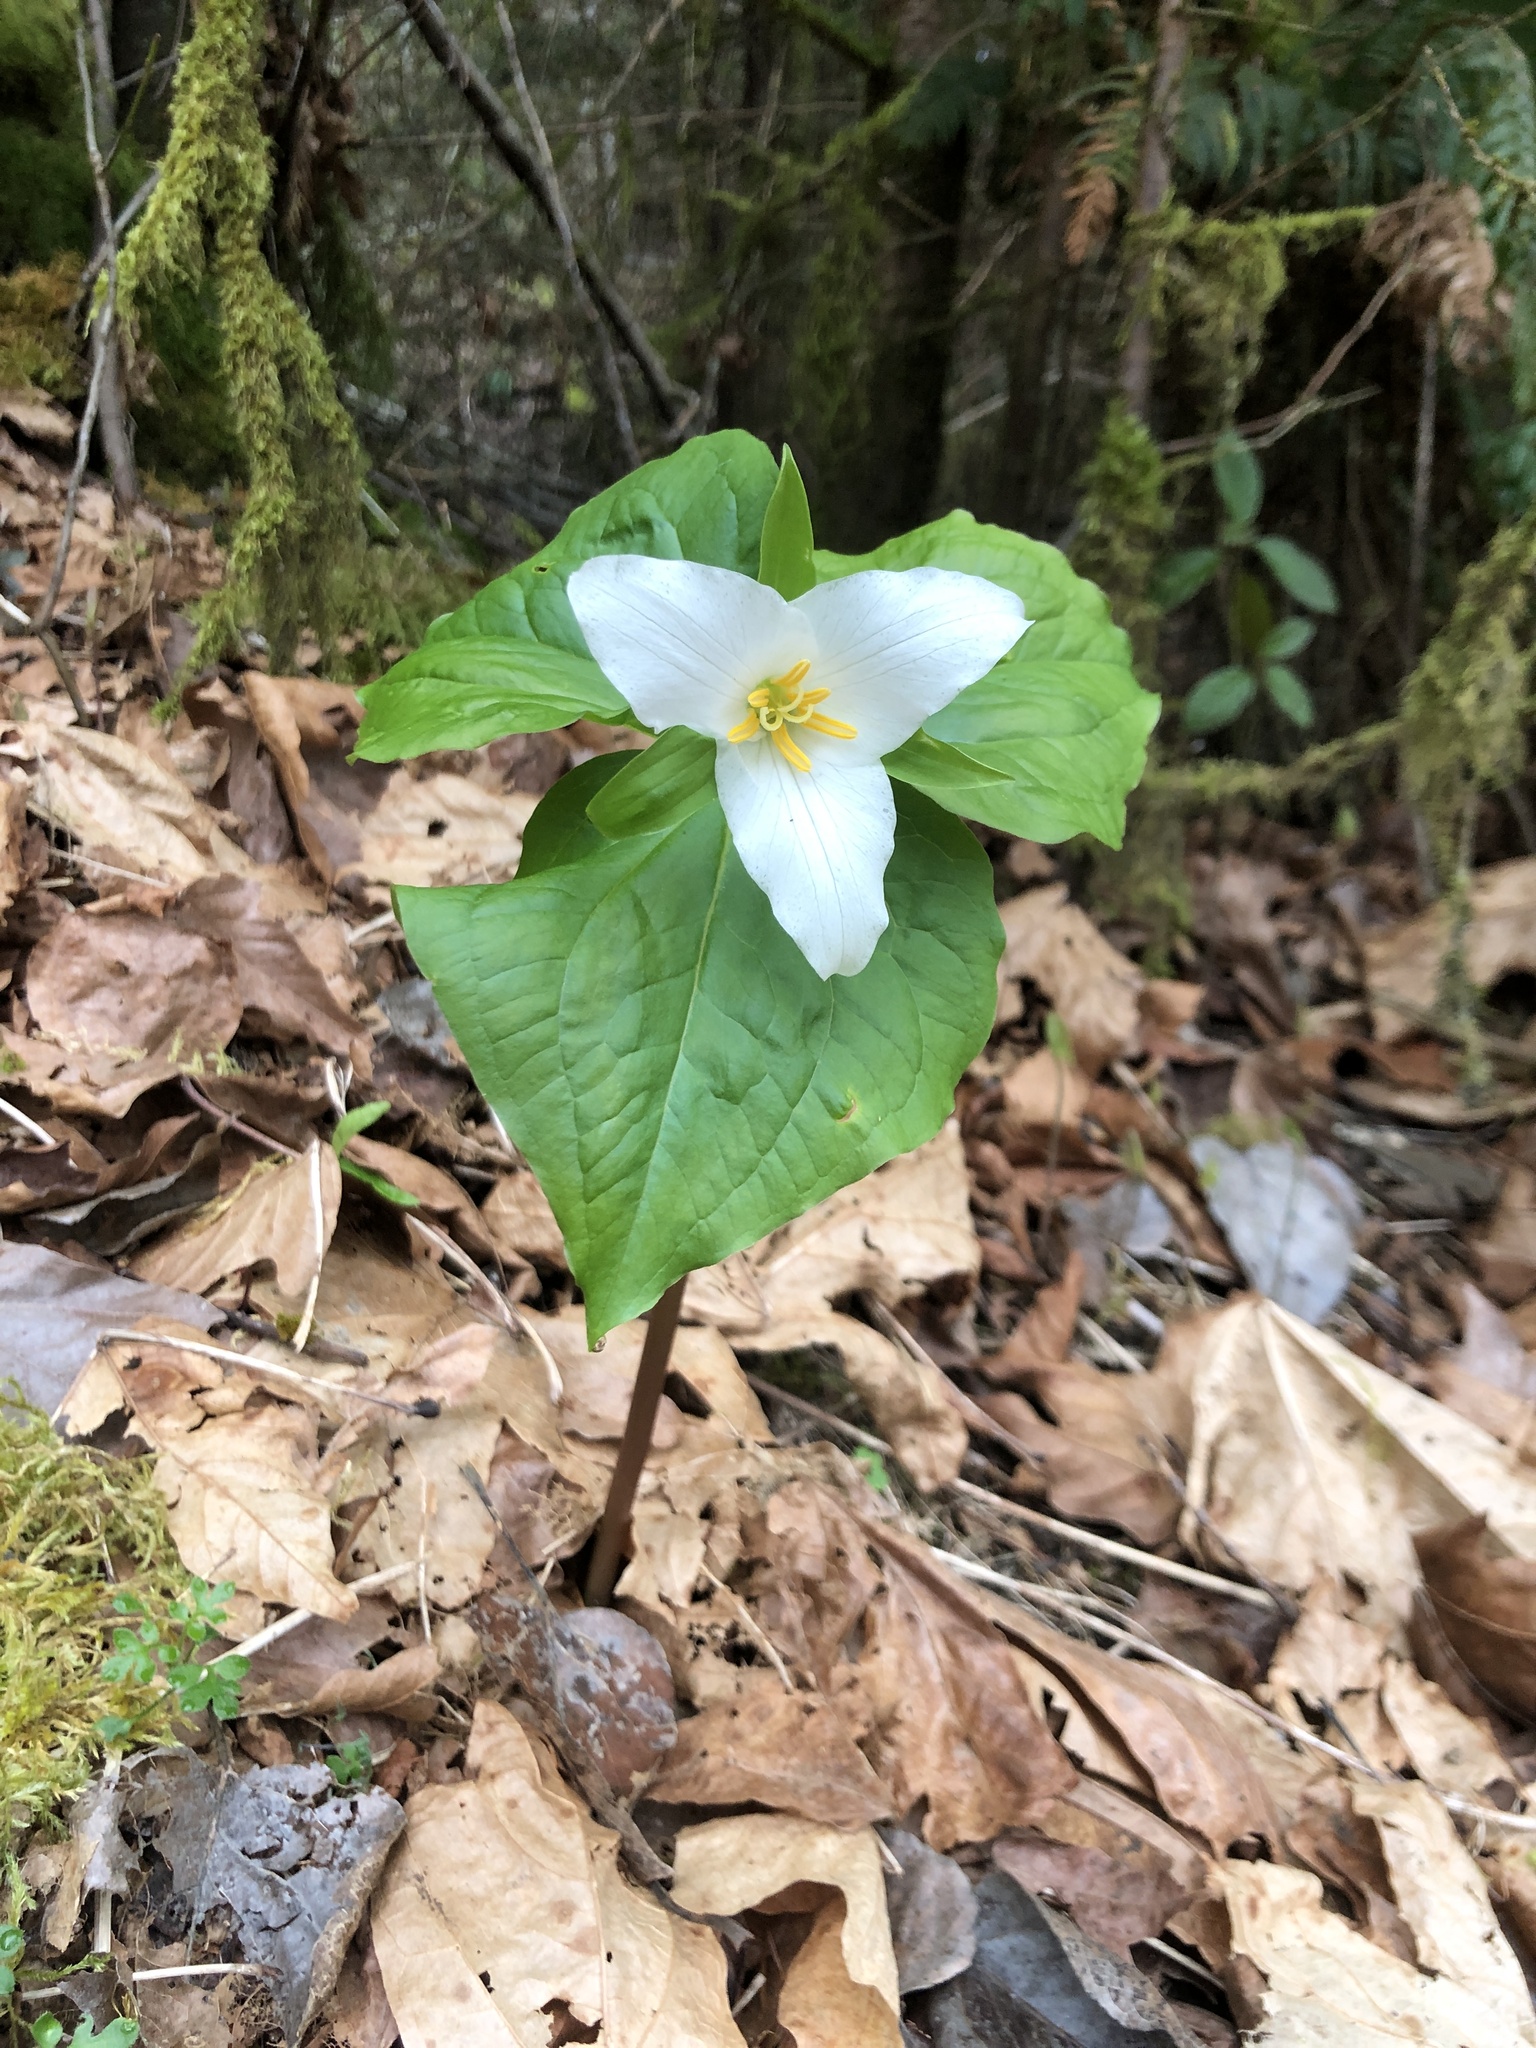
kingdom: Plantae
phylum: Tracheophyta
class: Liliopsida
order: Liliales
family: Melanthiaceae
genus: Trillium
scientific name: Trillium ovatum
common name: Pacific trillium
